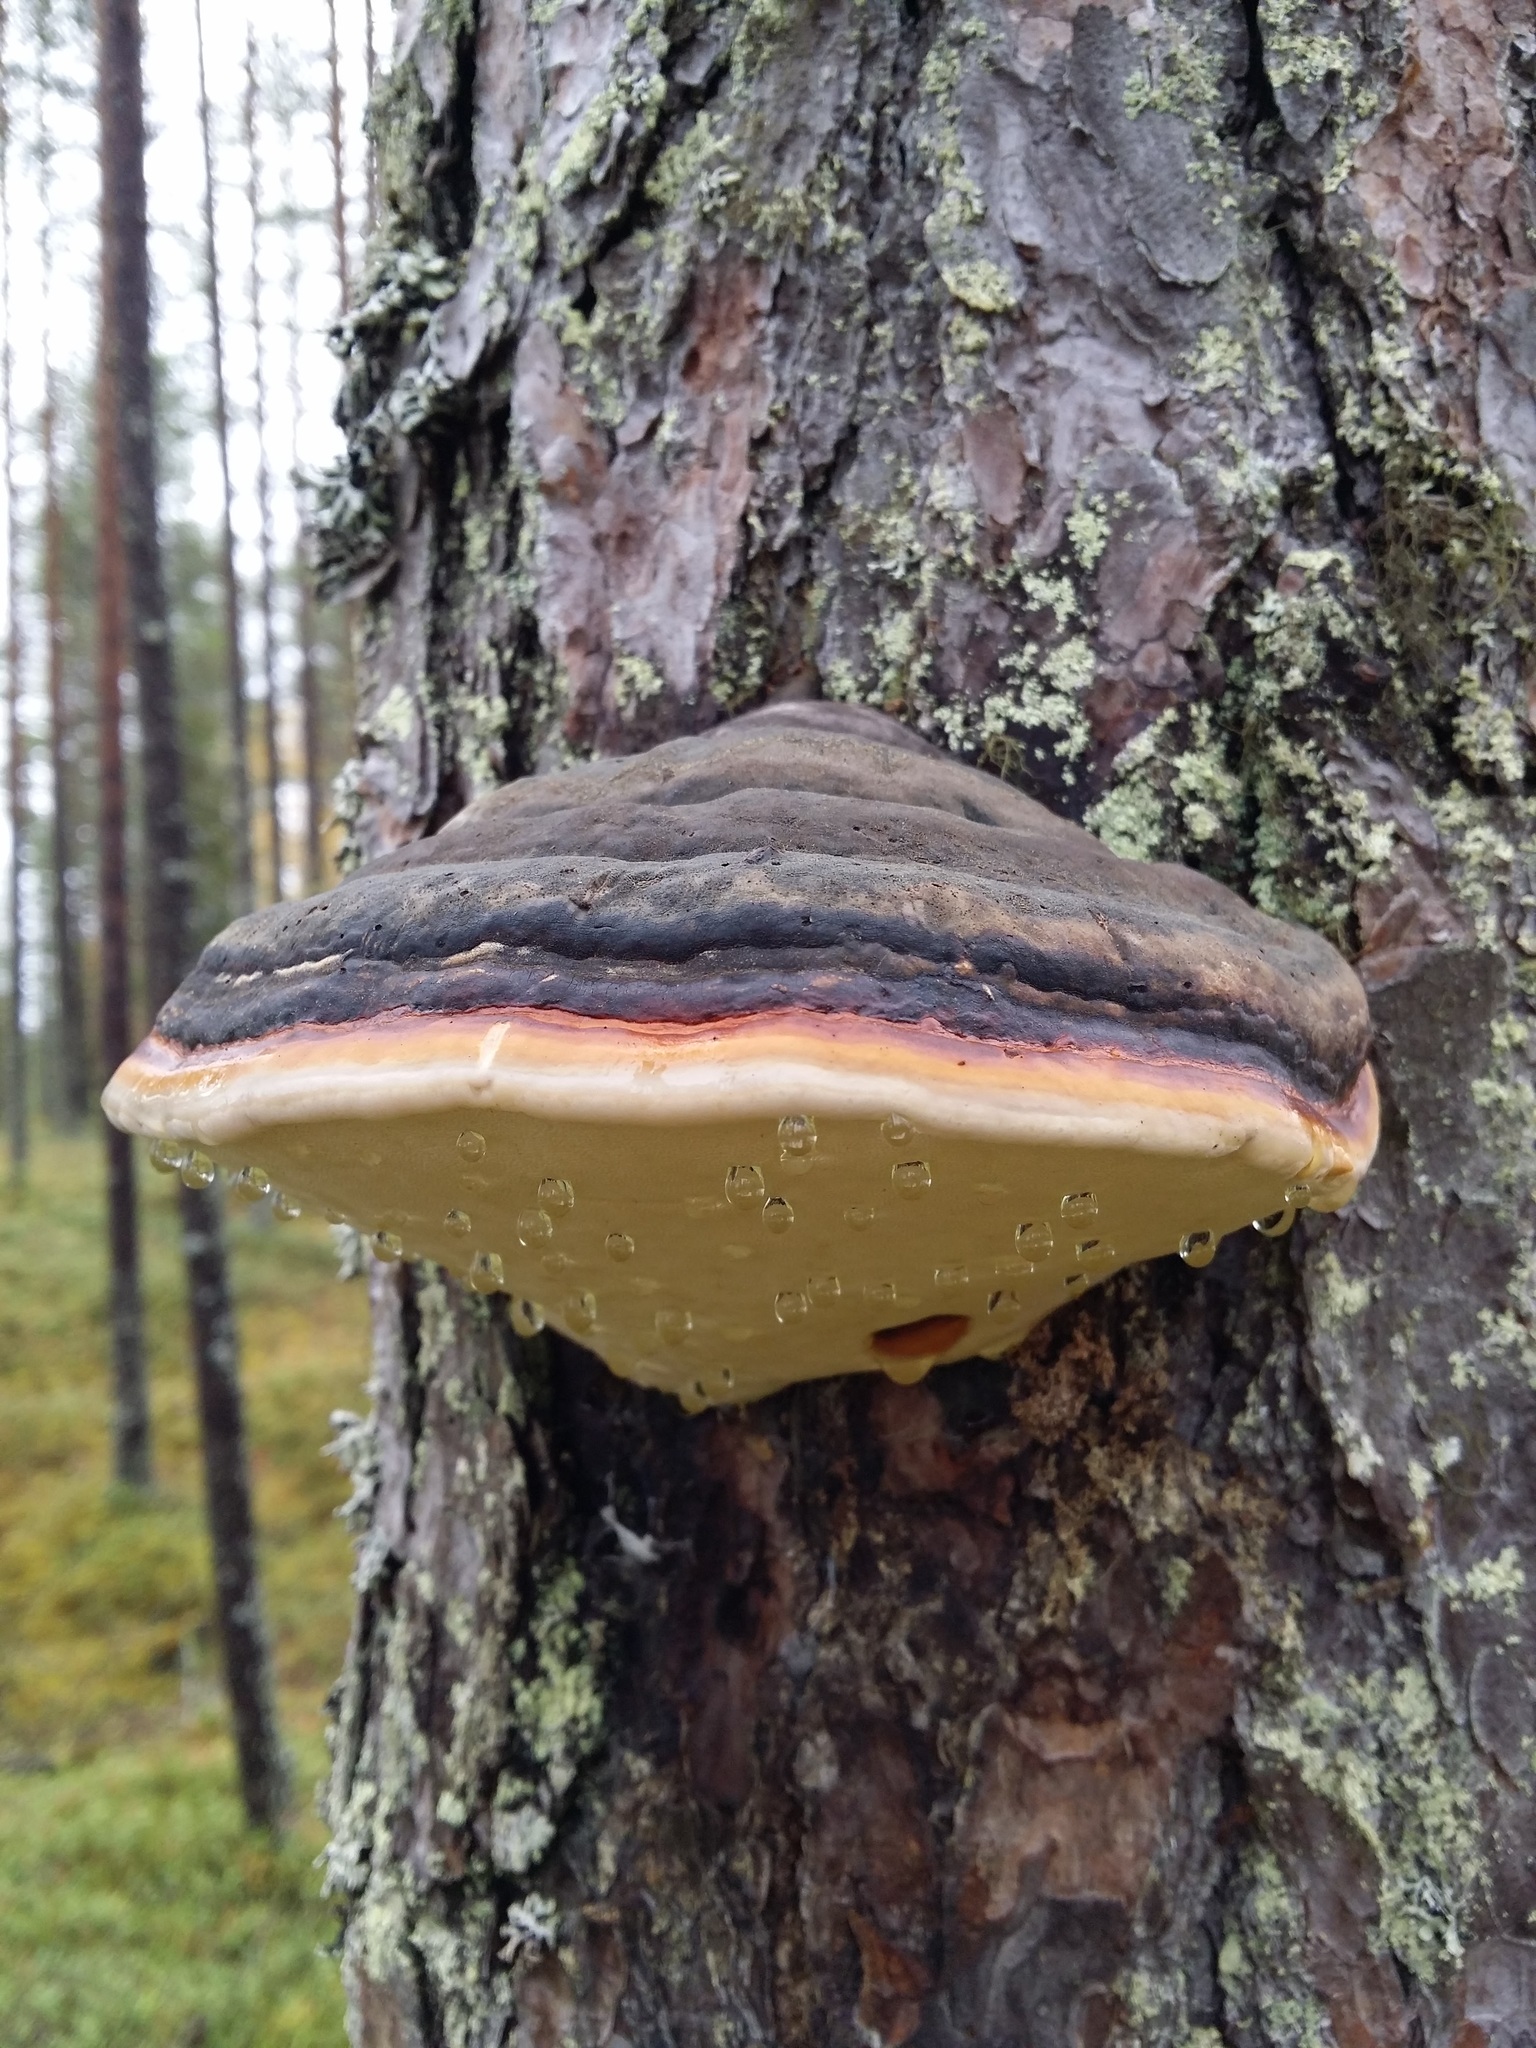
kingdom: Fungi
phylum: Basidiomycota
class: Agaricomycetes
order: Polyporales
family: Fomitopsidaceae
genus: Fomitopsis
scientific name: Fomitopsis pinicola
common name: Red-belted bracket
